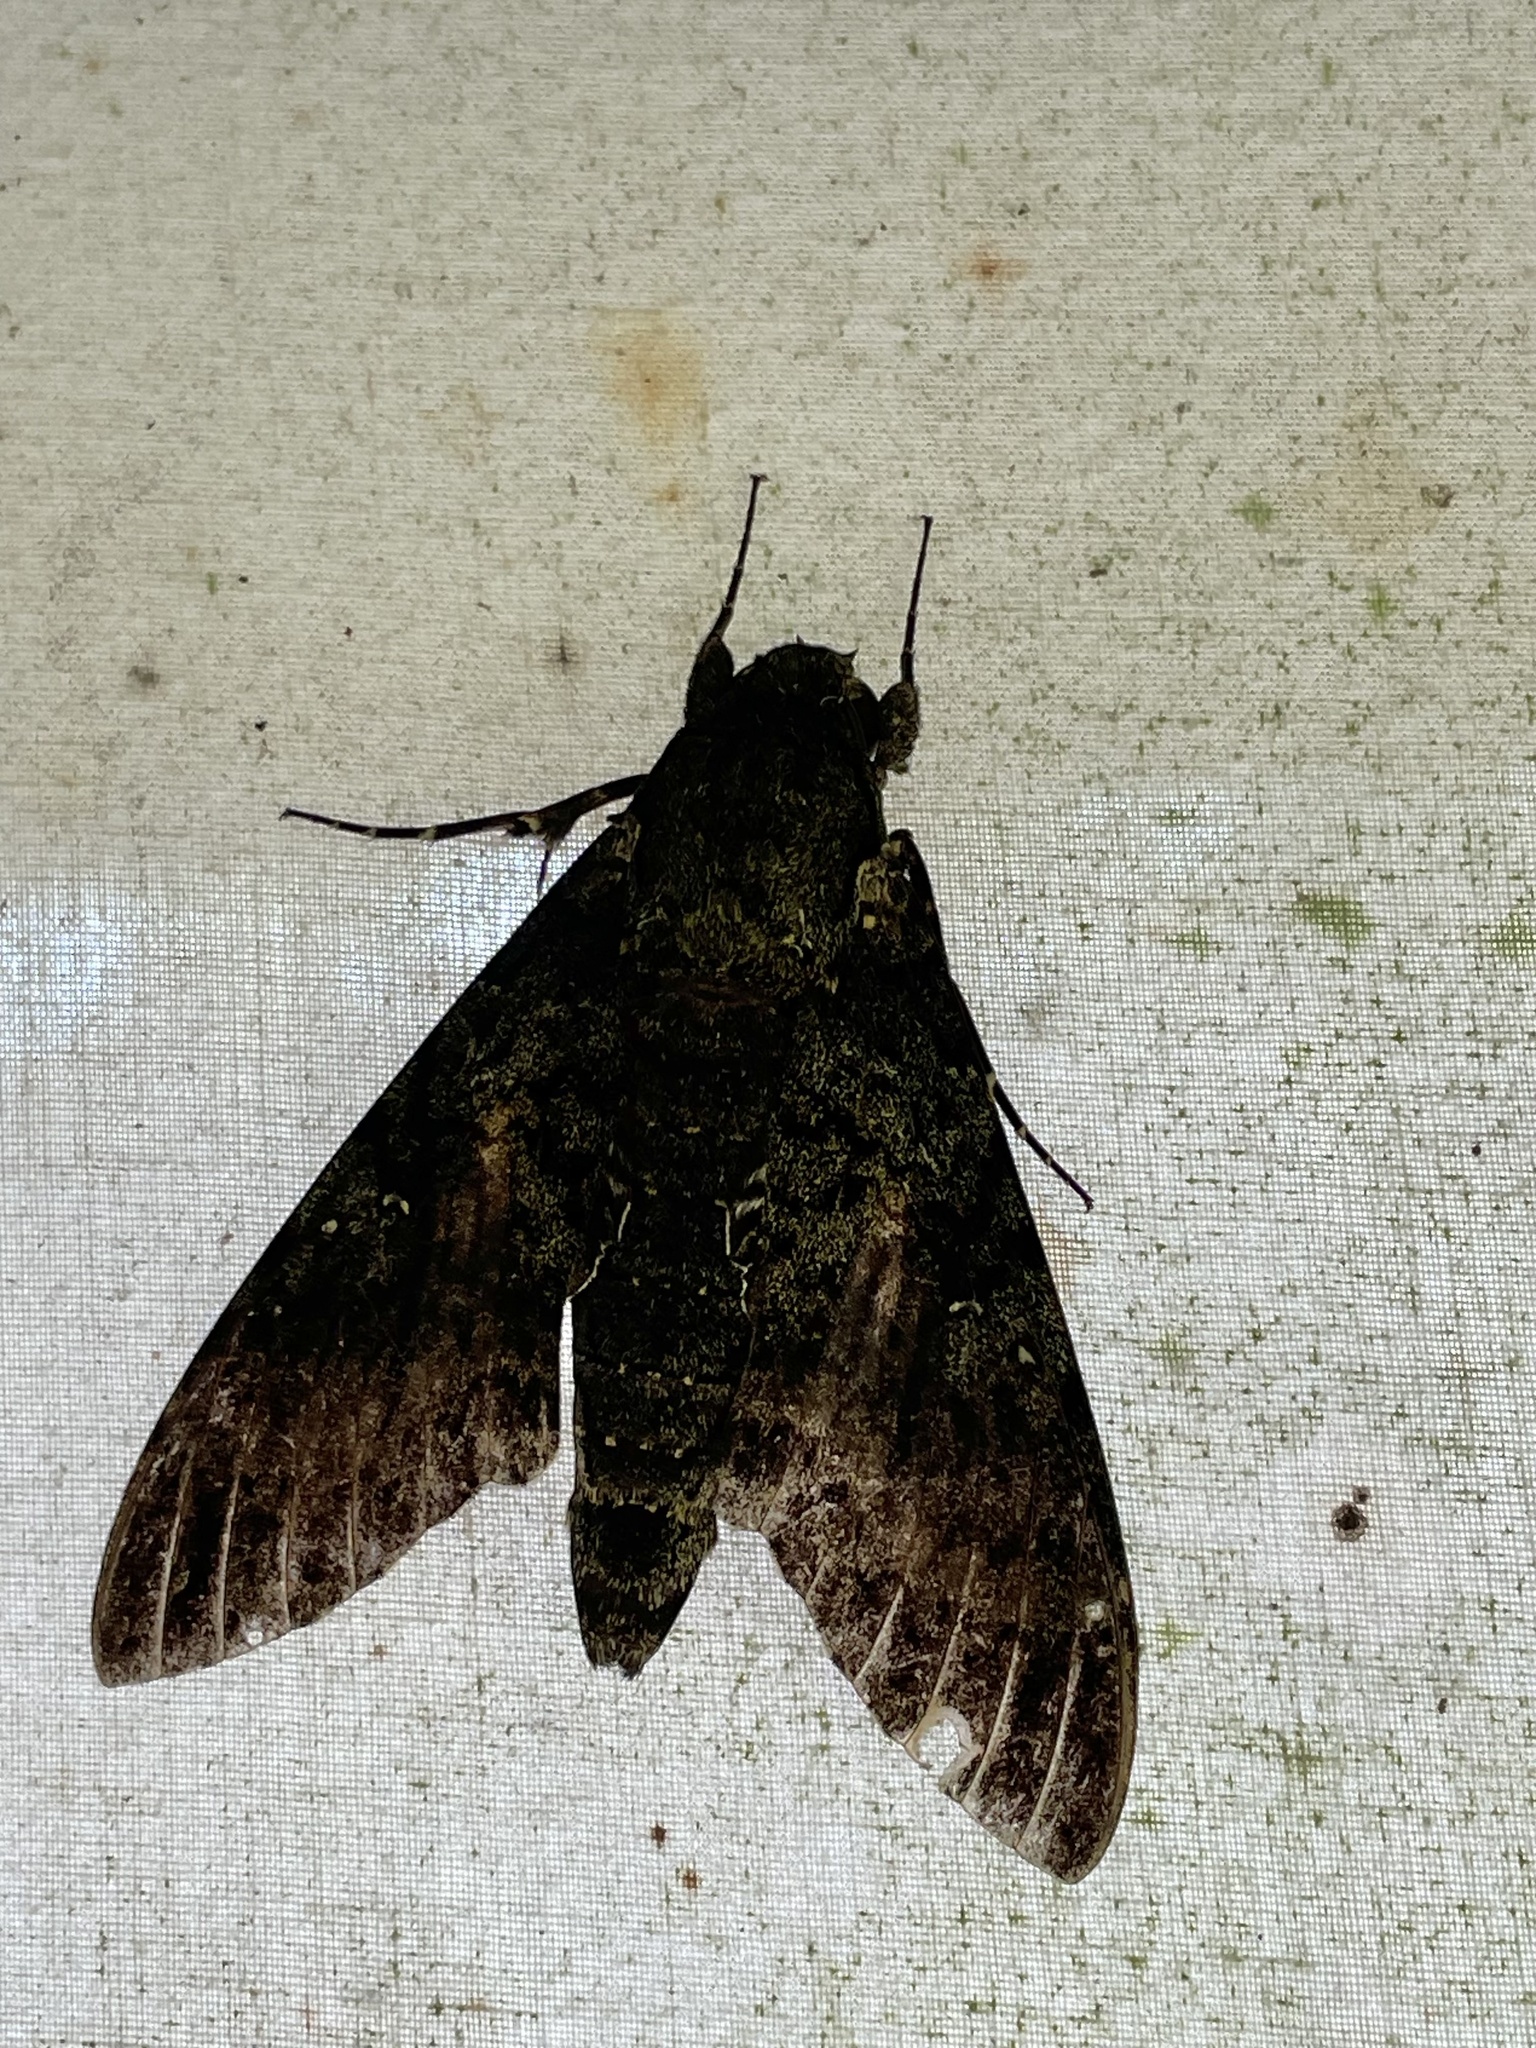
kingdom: Animalia
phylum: Arthropoda
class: Insecta
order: Lepidoptera
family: Sphingidae
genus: Cocytius
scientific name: Cocytius duponchel
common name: Duponchel's sphinx
